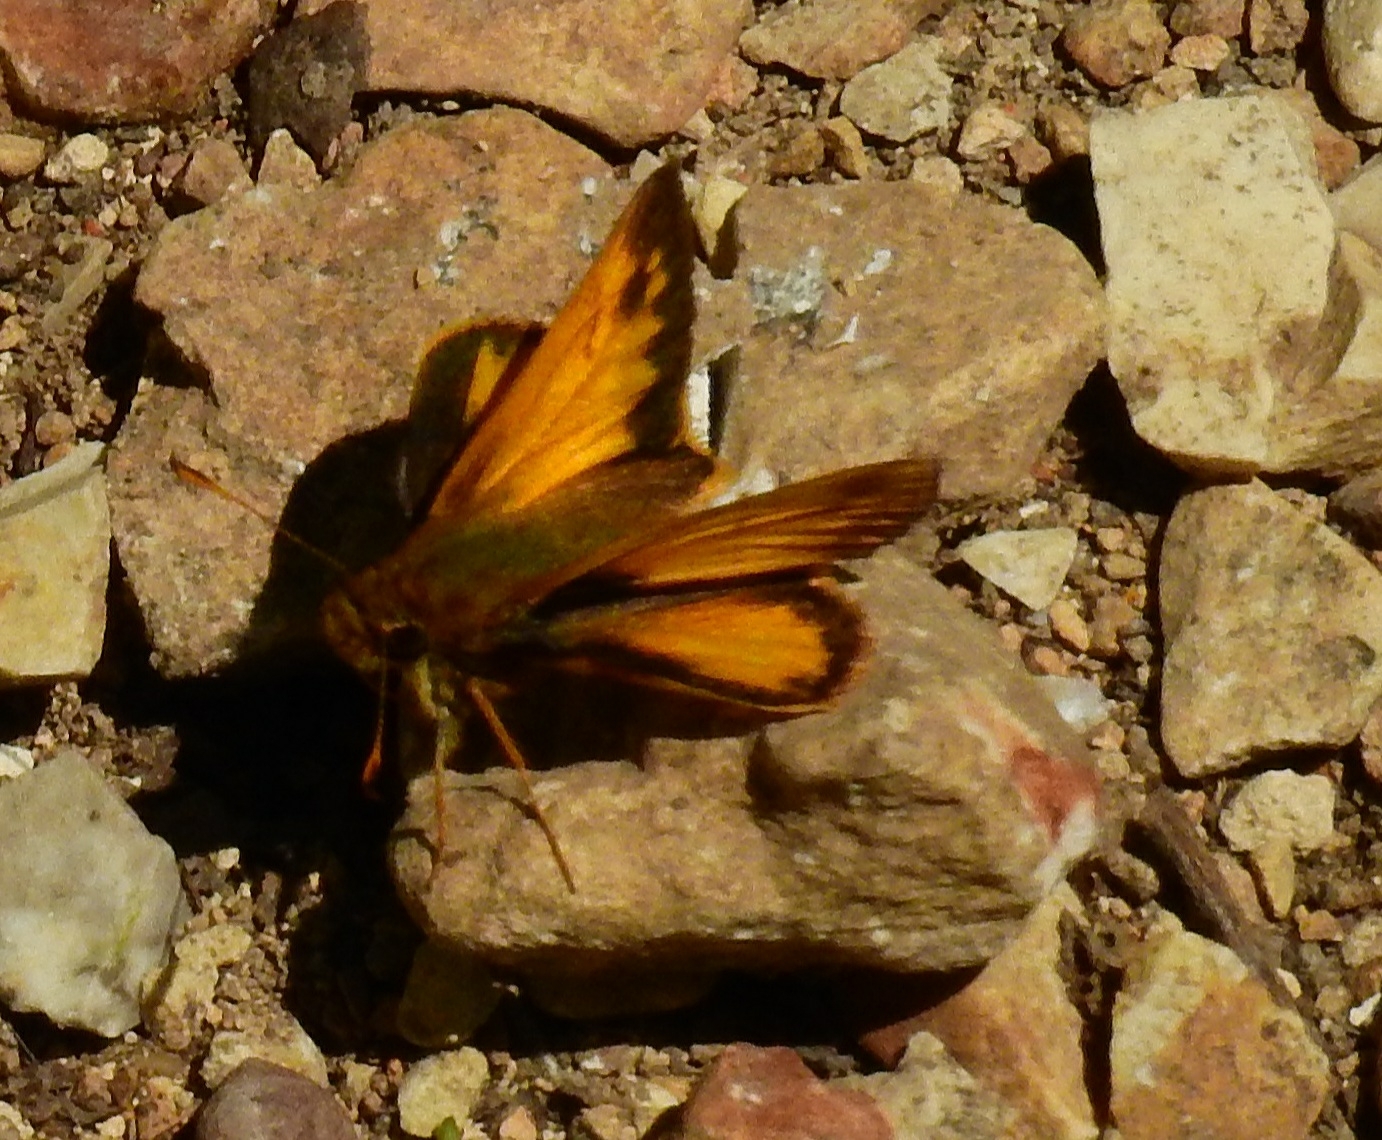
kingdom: Animalia
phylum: Arthropoda
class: Insecta
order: Lepidoptera
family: Hesperiidae
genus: Lon
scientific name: Lon zabulon
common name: Zabulon skipper
